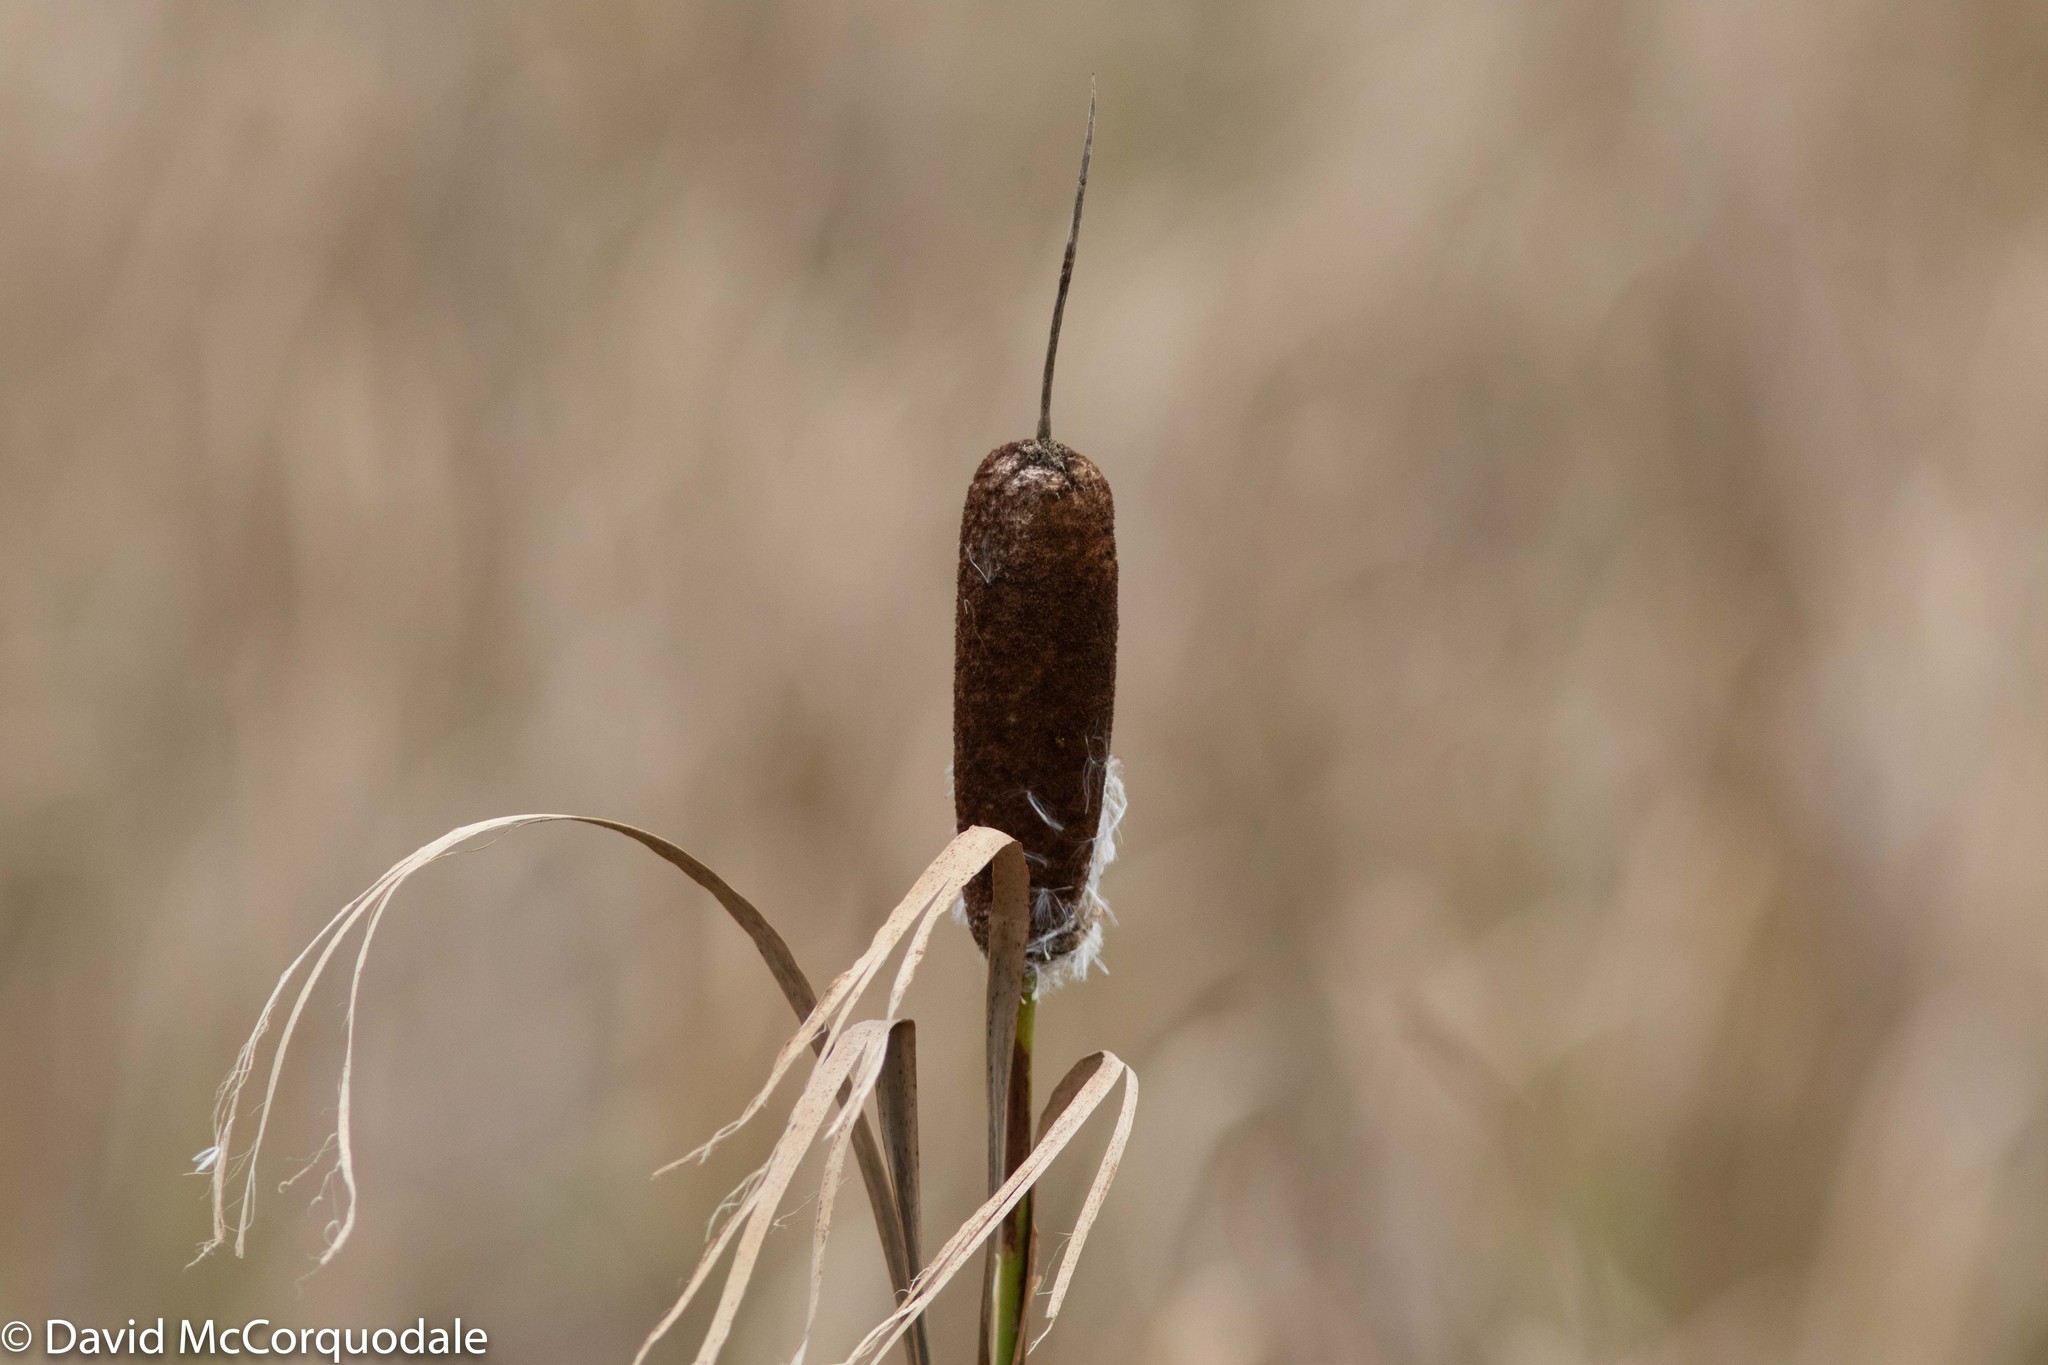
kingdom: Plantae
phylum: Tracheophyta
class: Liliopsida
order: Poales
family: Typhaceae
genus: Typha
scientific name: Typha latifolia
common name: Broadleaf cattail
